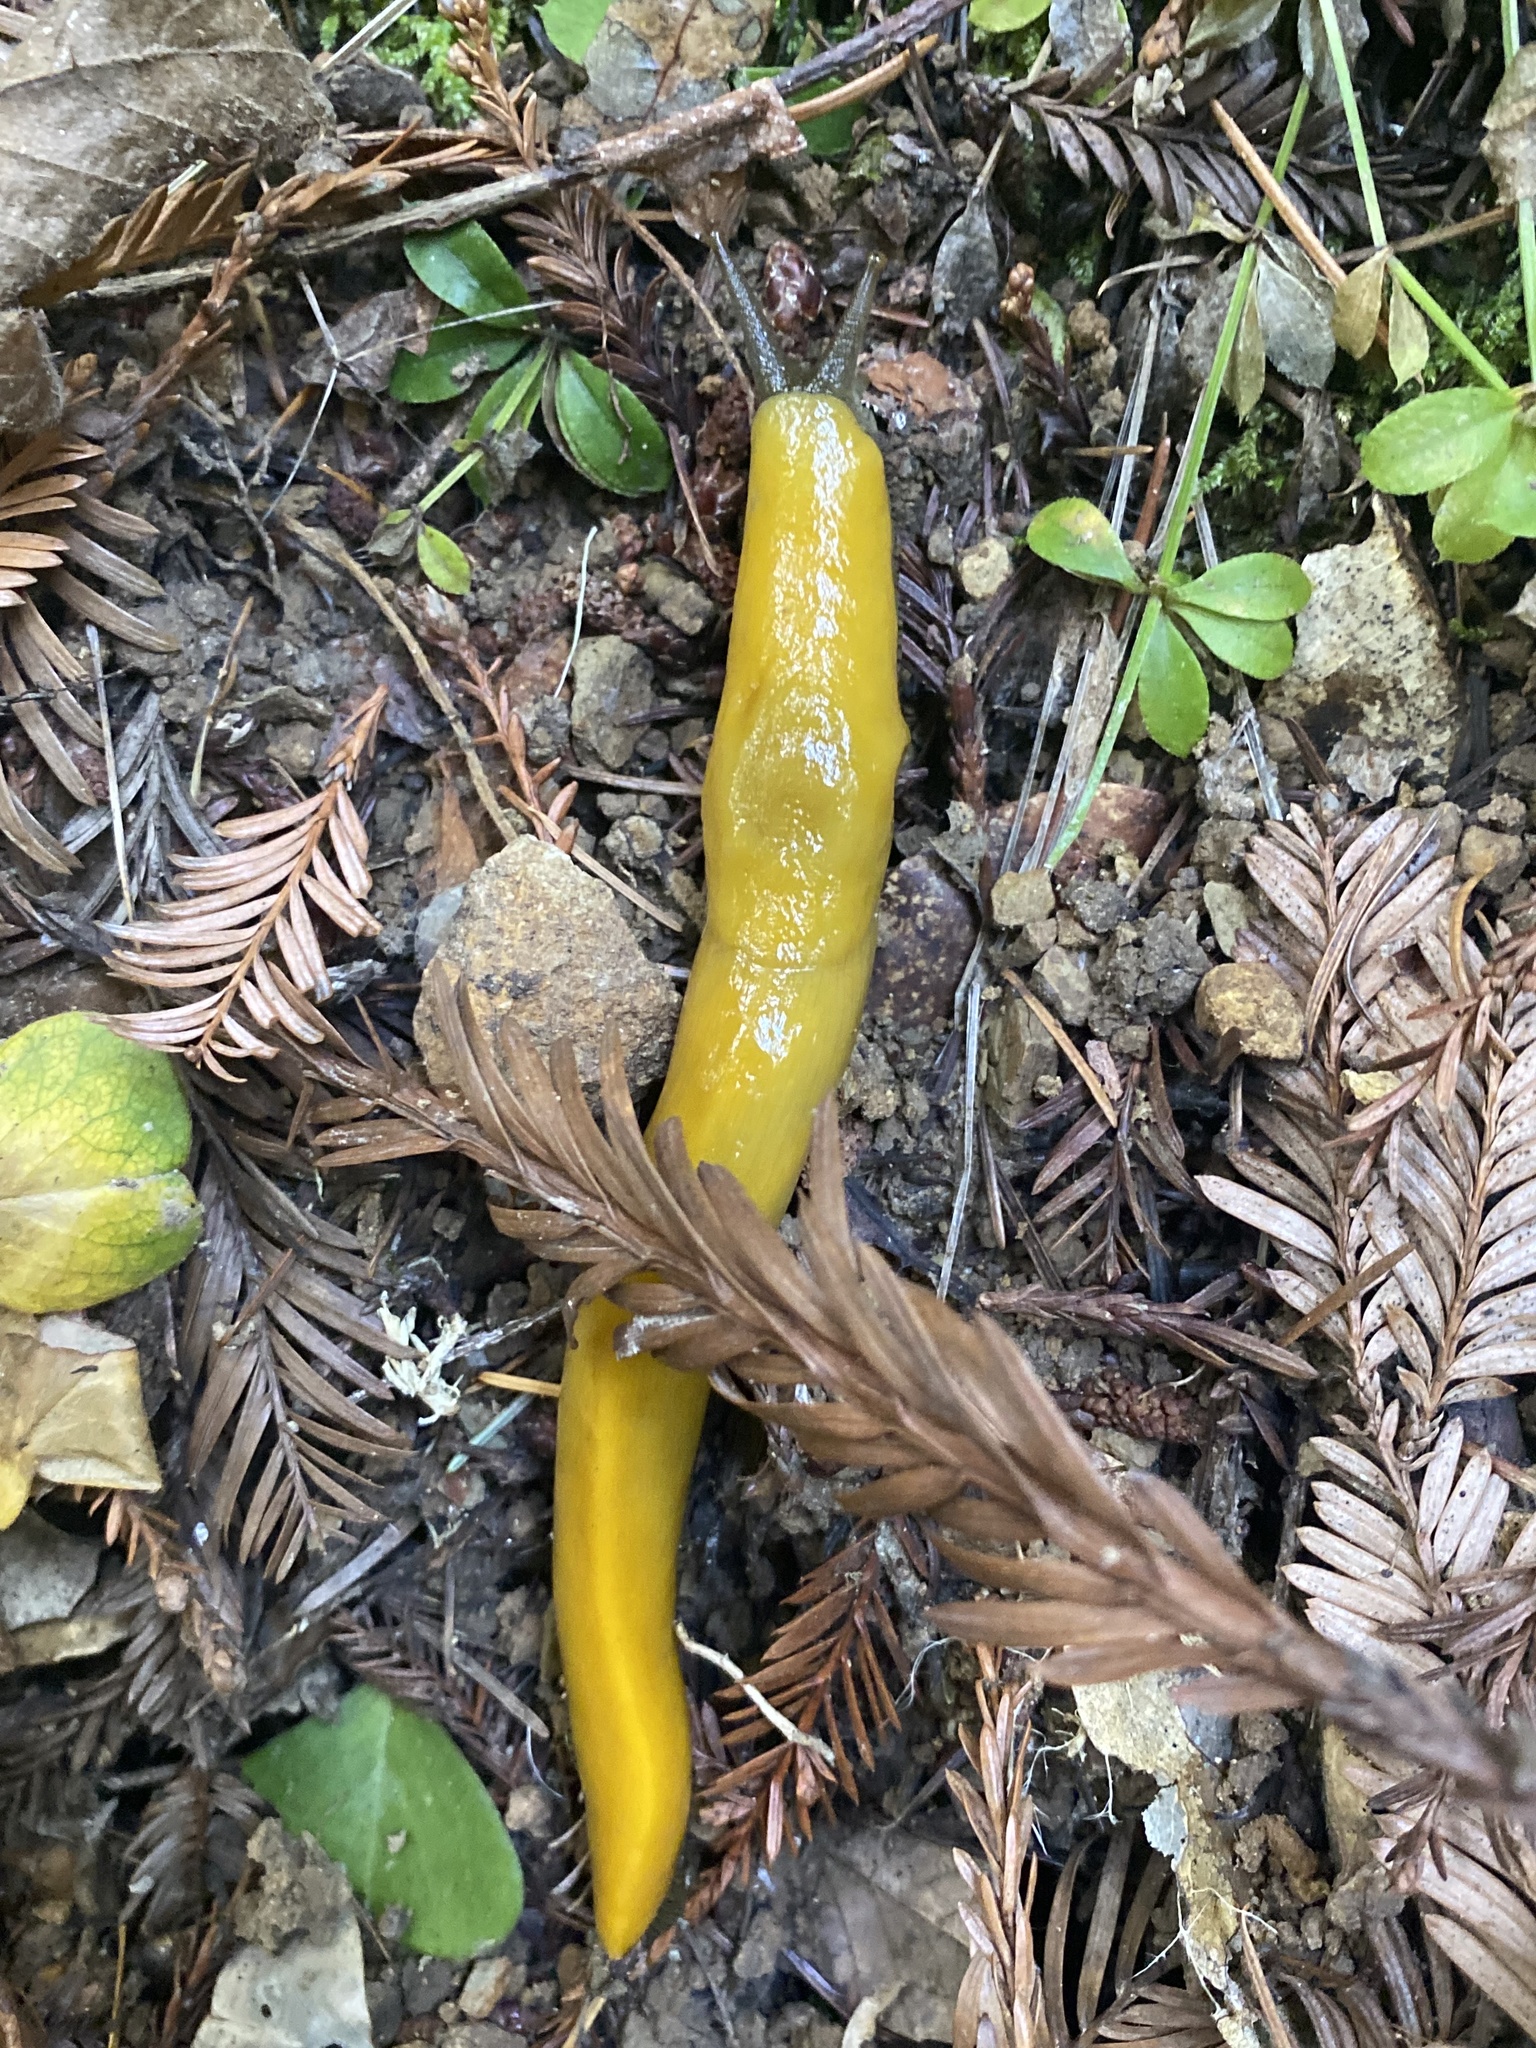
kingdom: Animalia
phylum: Mollusca
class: Gastropoda
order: Stylommatophora
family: Ariolimacidae
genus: Ariolimax
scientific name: Ariolimax dolichophallus
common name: Slender banana slug
